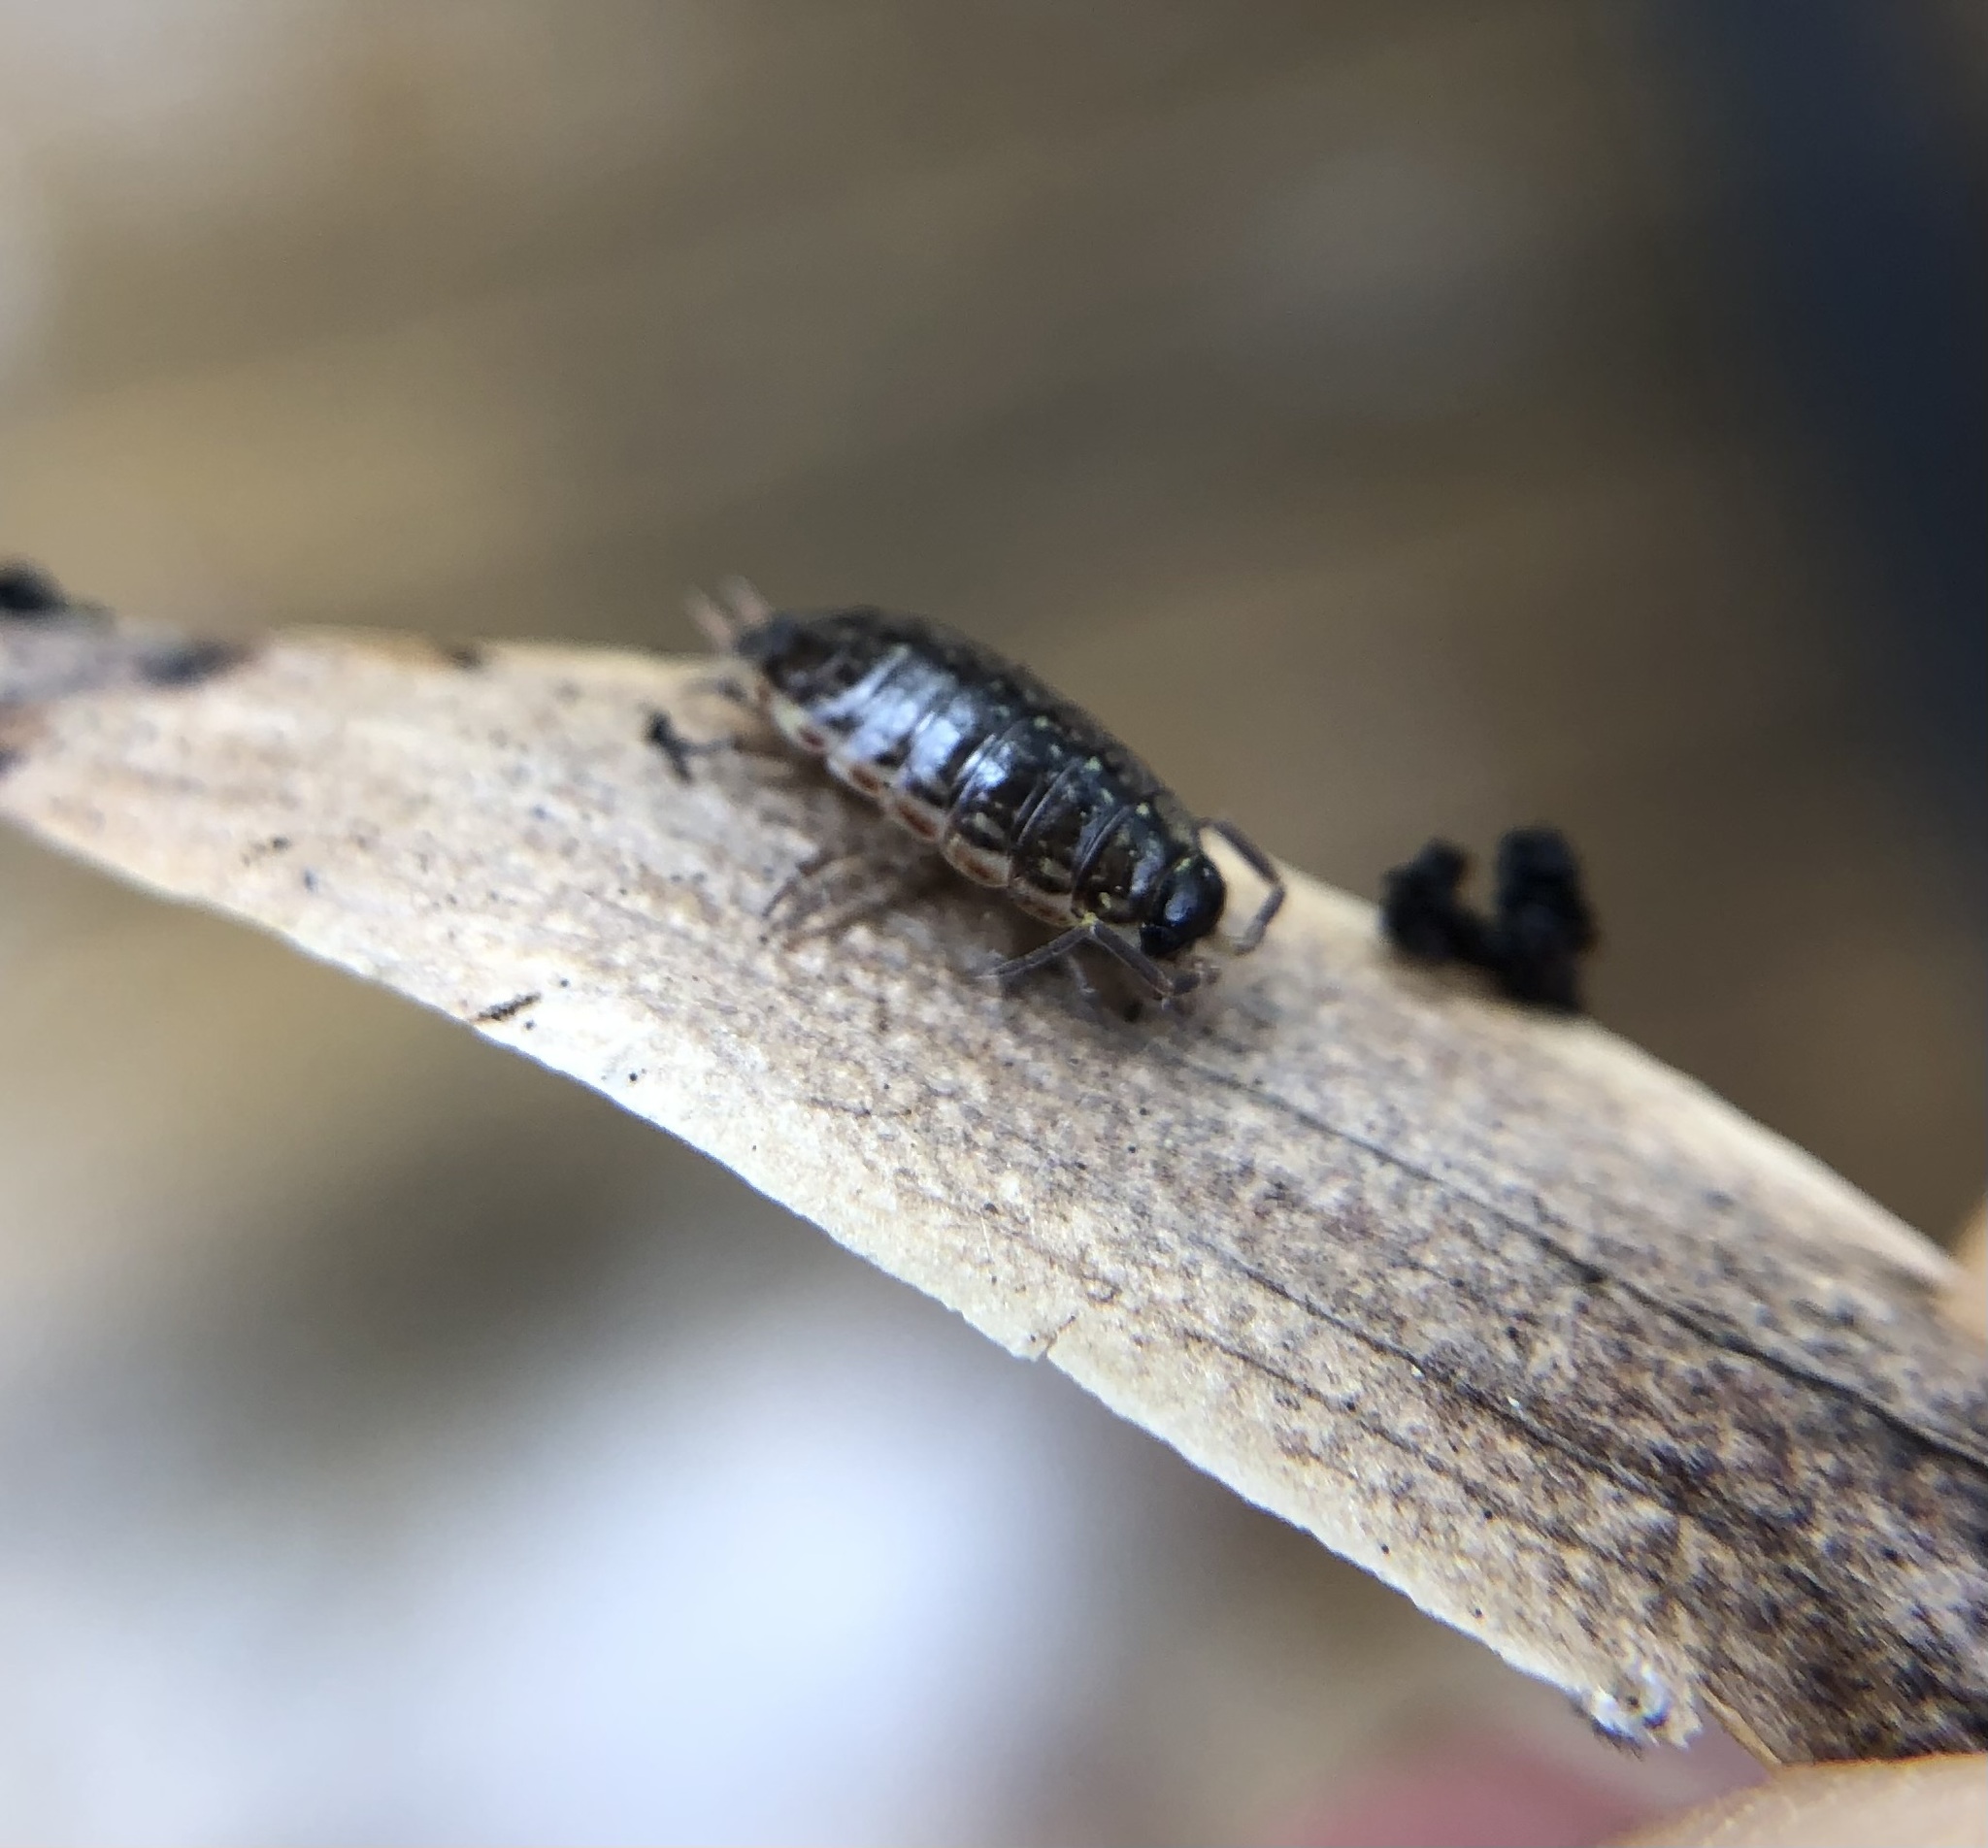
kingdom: Animalia
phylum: Arthropoda
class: Malacostraca
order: Isopoda
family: Philosciidae
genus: Philoscia
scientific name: Philoscia muscorum
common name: Common striped woodlouse
